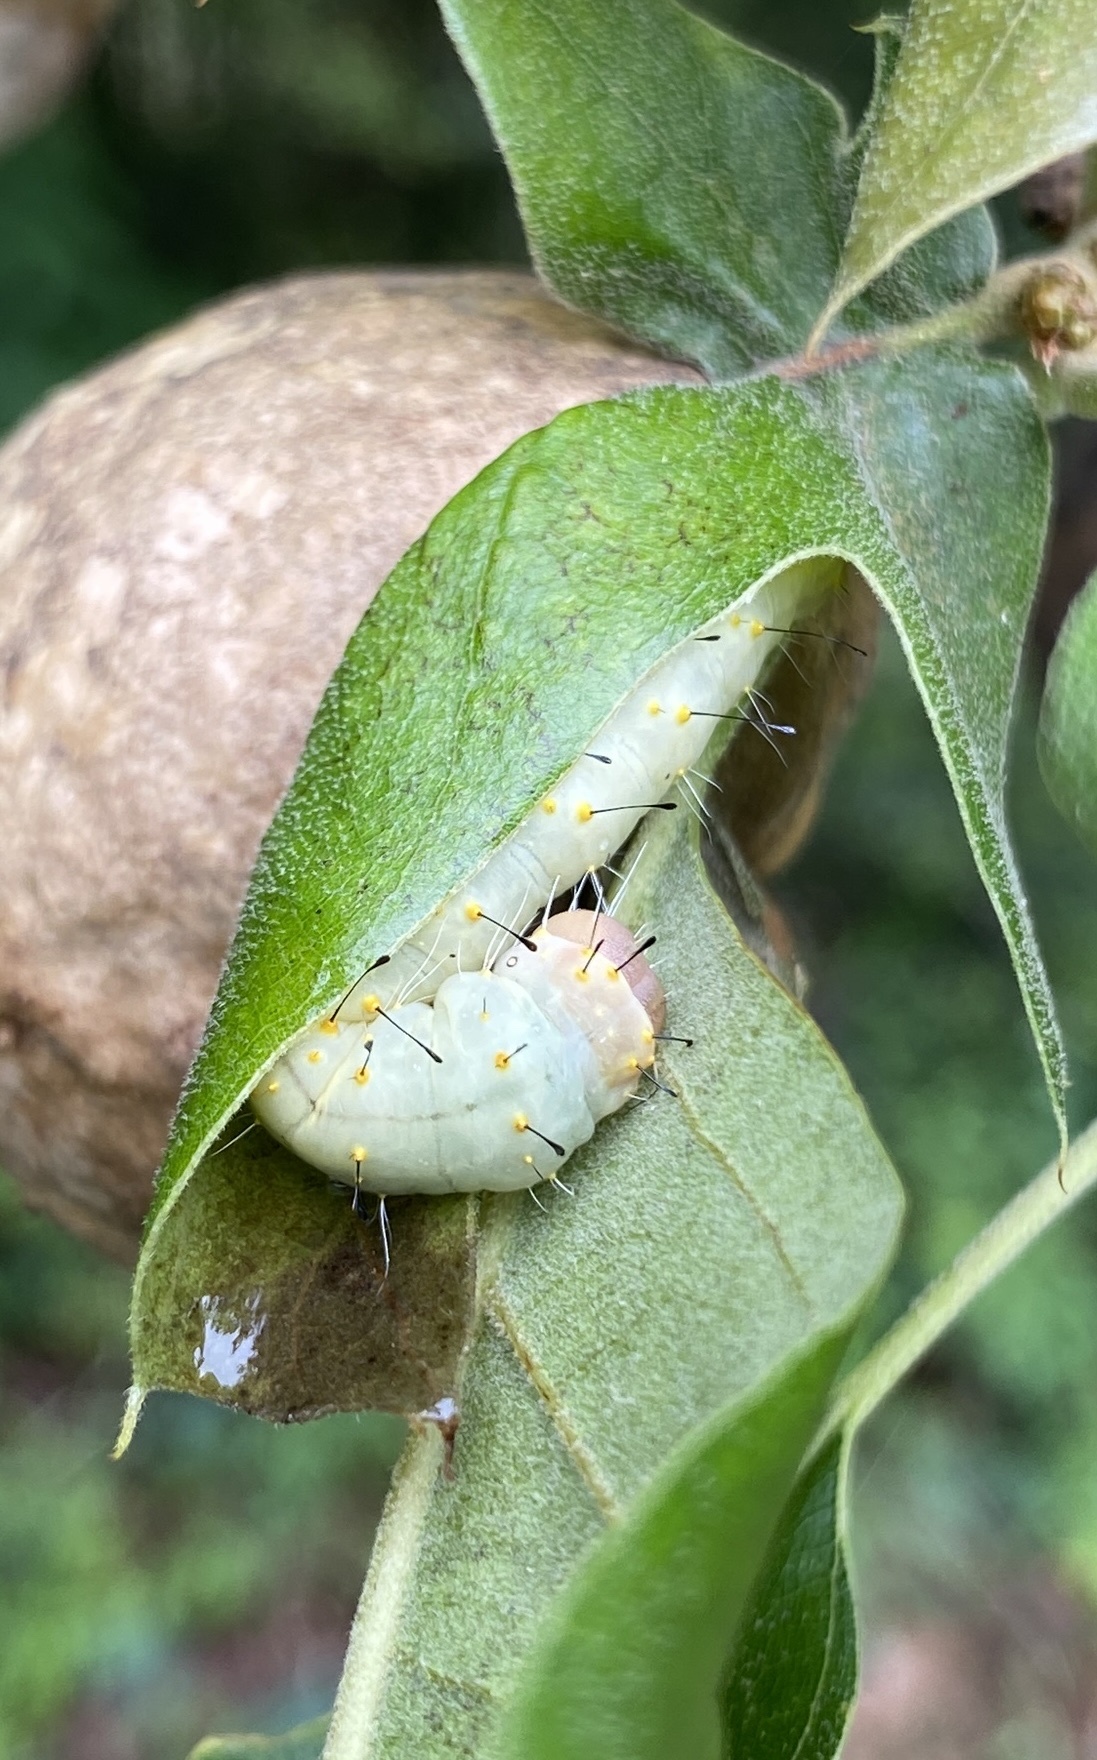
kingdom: Animalia
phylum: Arthropoda
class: Insecta
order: Lepidoptera
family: Noctuidae
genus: Acronicta
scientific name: Acronicta brumosa
